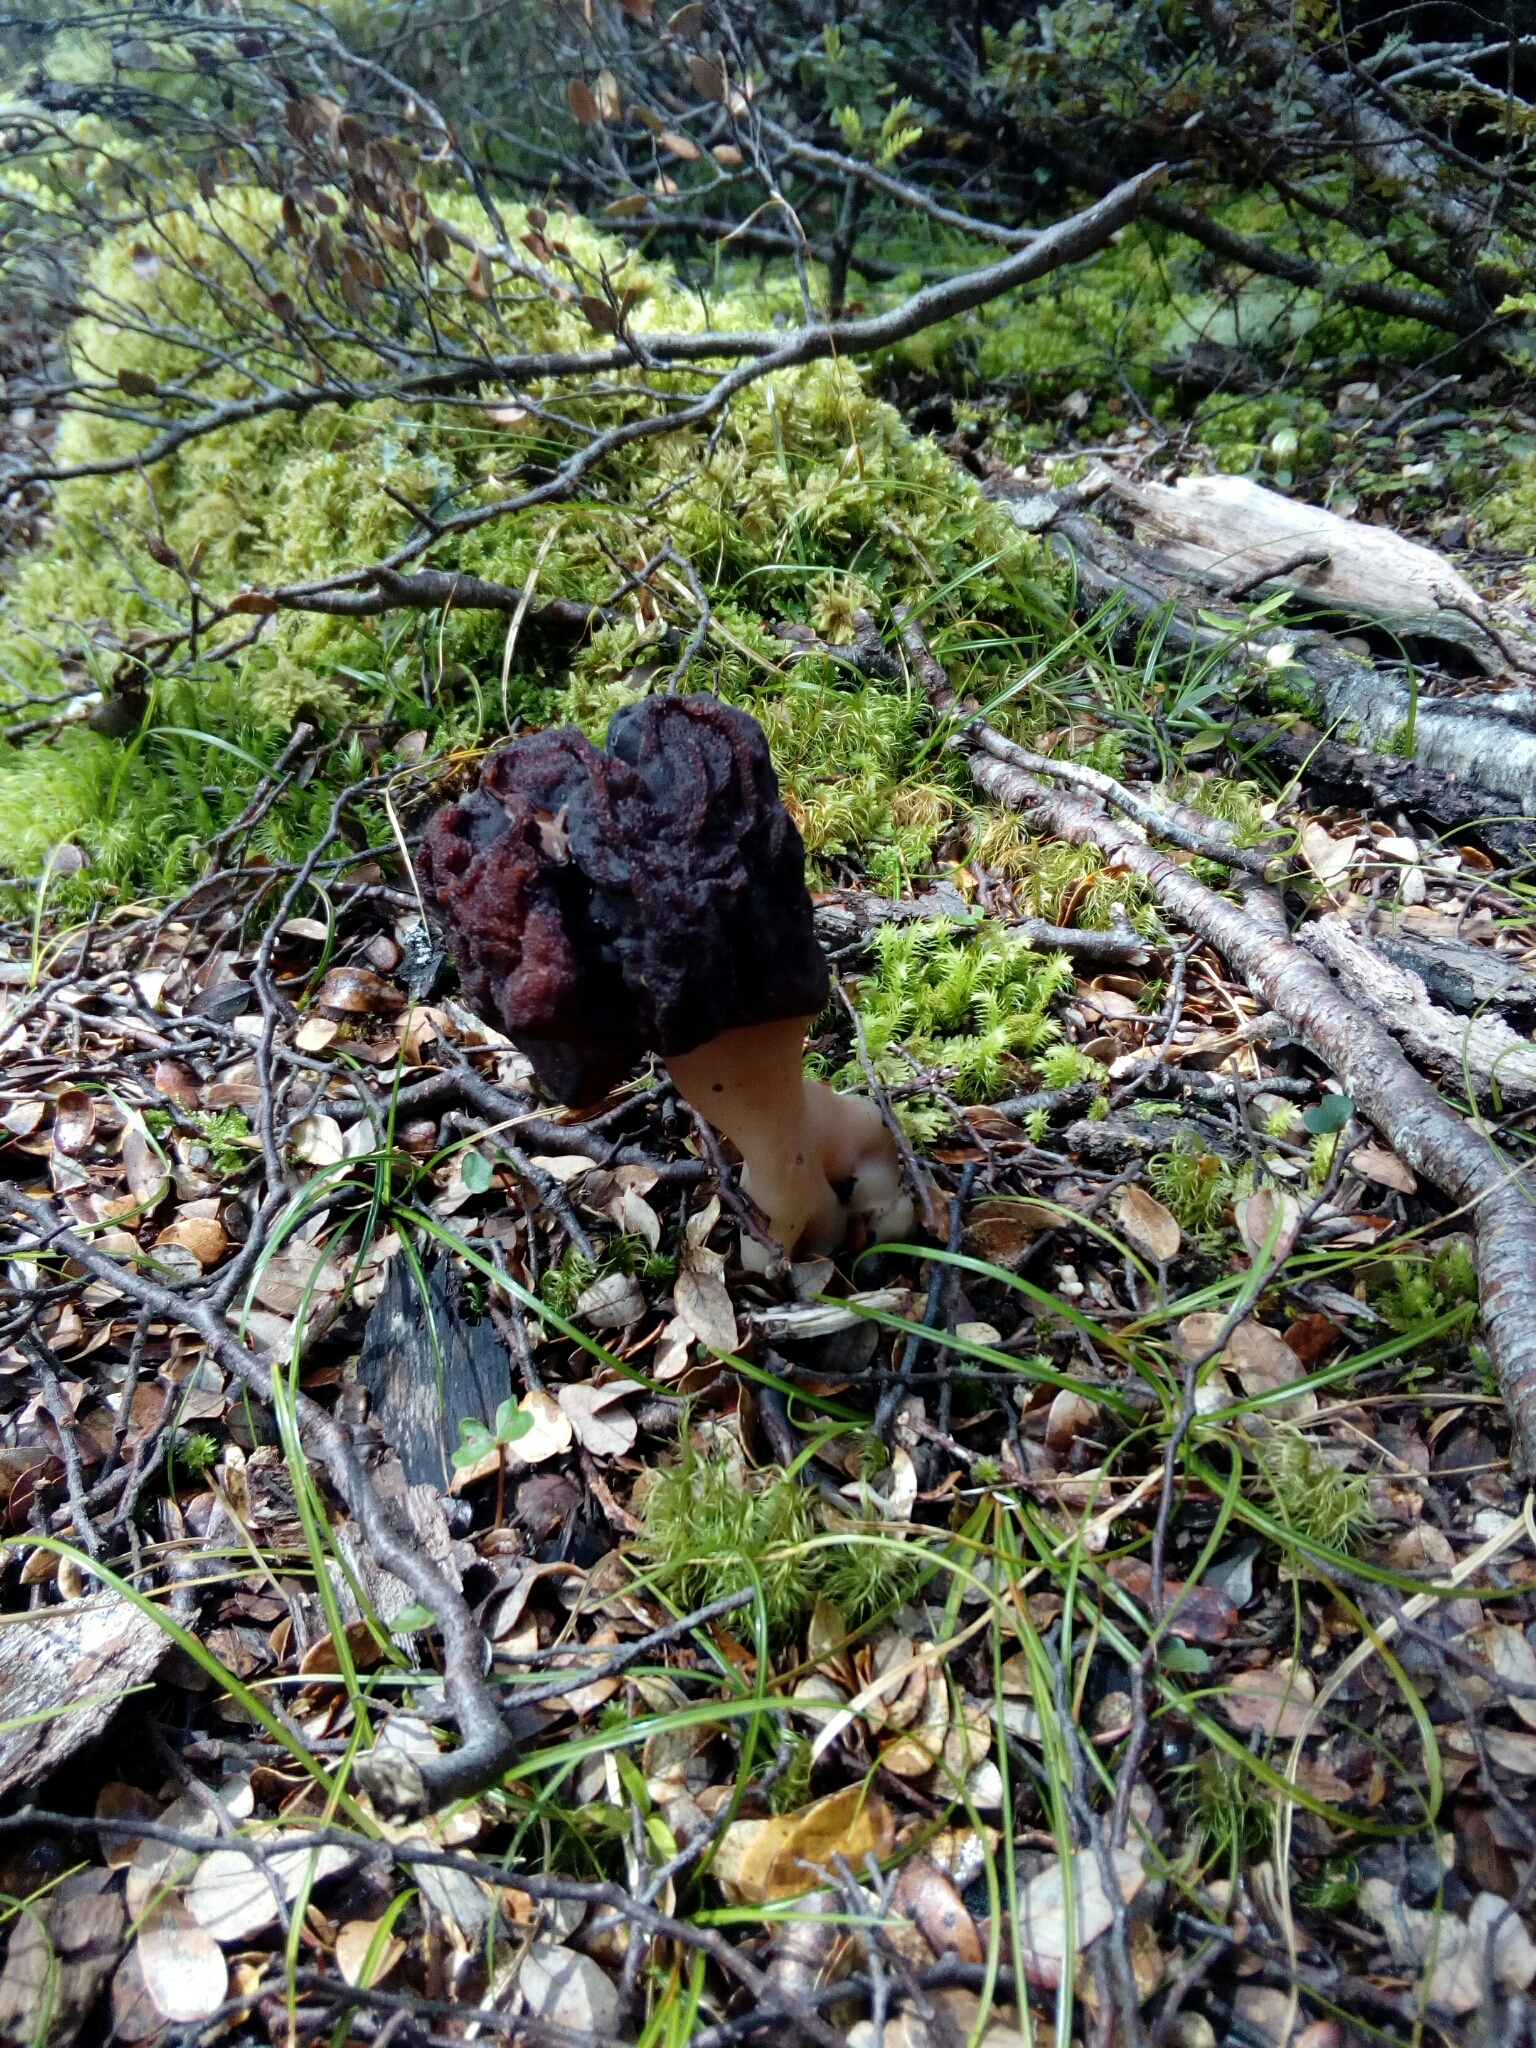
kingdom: Fungi
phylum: Ascomycota
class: Pezizomycetes
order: Pezizales
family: Discinaceae
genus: Gyromitra
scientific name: Gyromitra tasmanica
